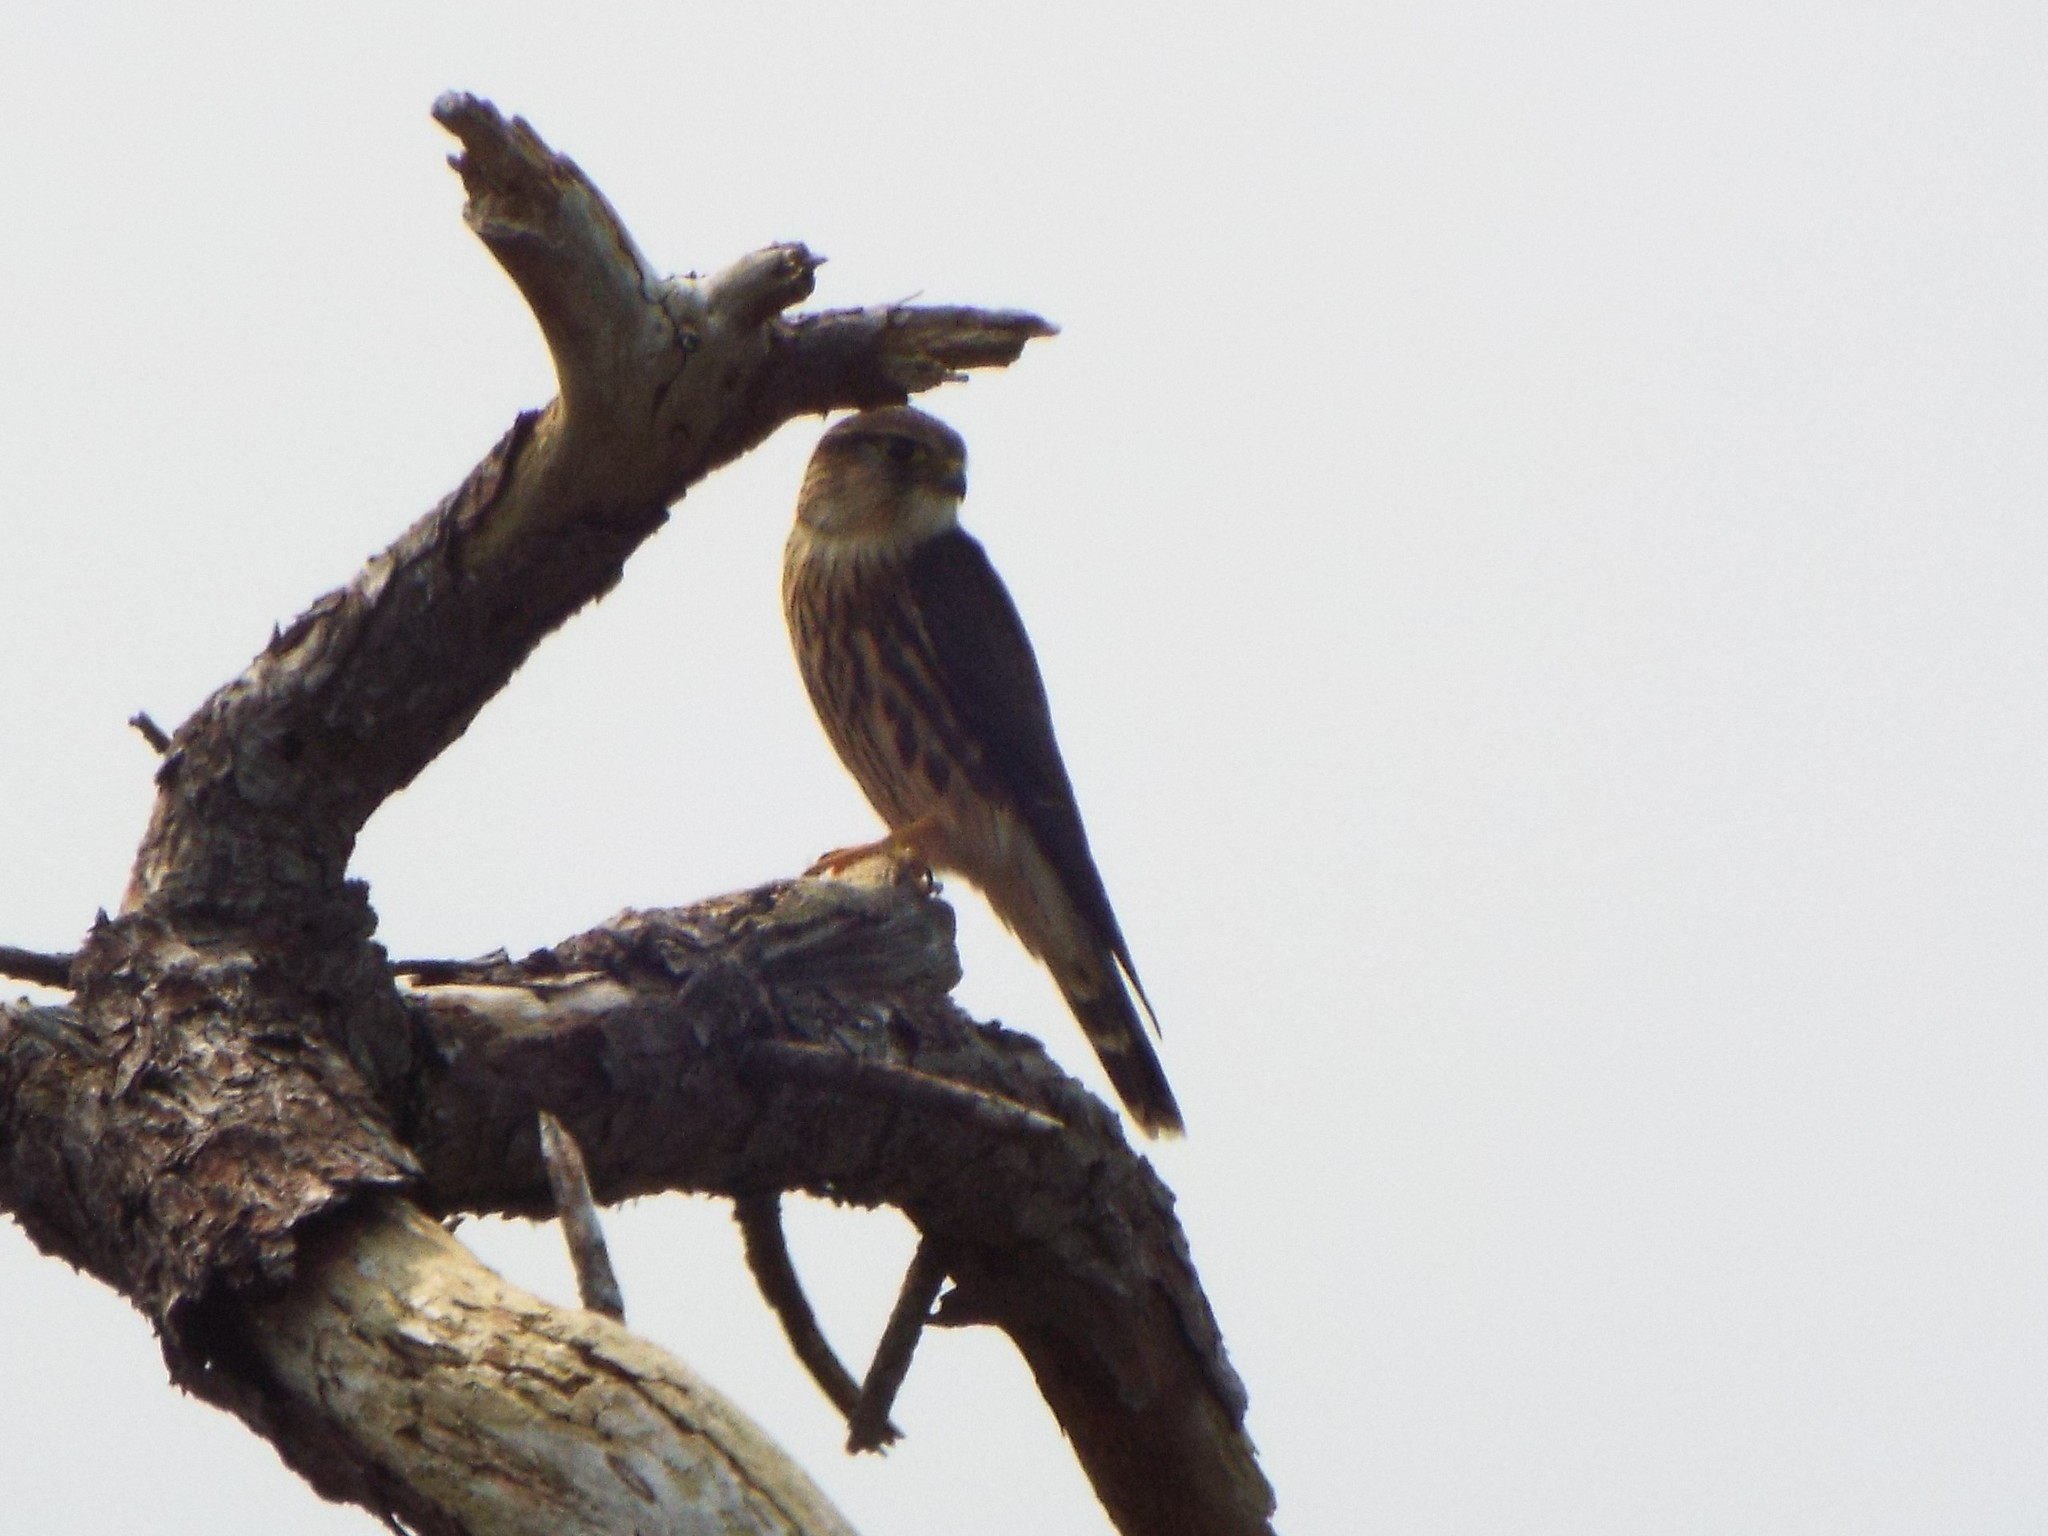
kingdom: Animalia
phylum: Chordata
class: Aves
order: Falconiformes
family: Falconidae
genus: Falco
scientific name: Falco columbarius
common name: Merlin
